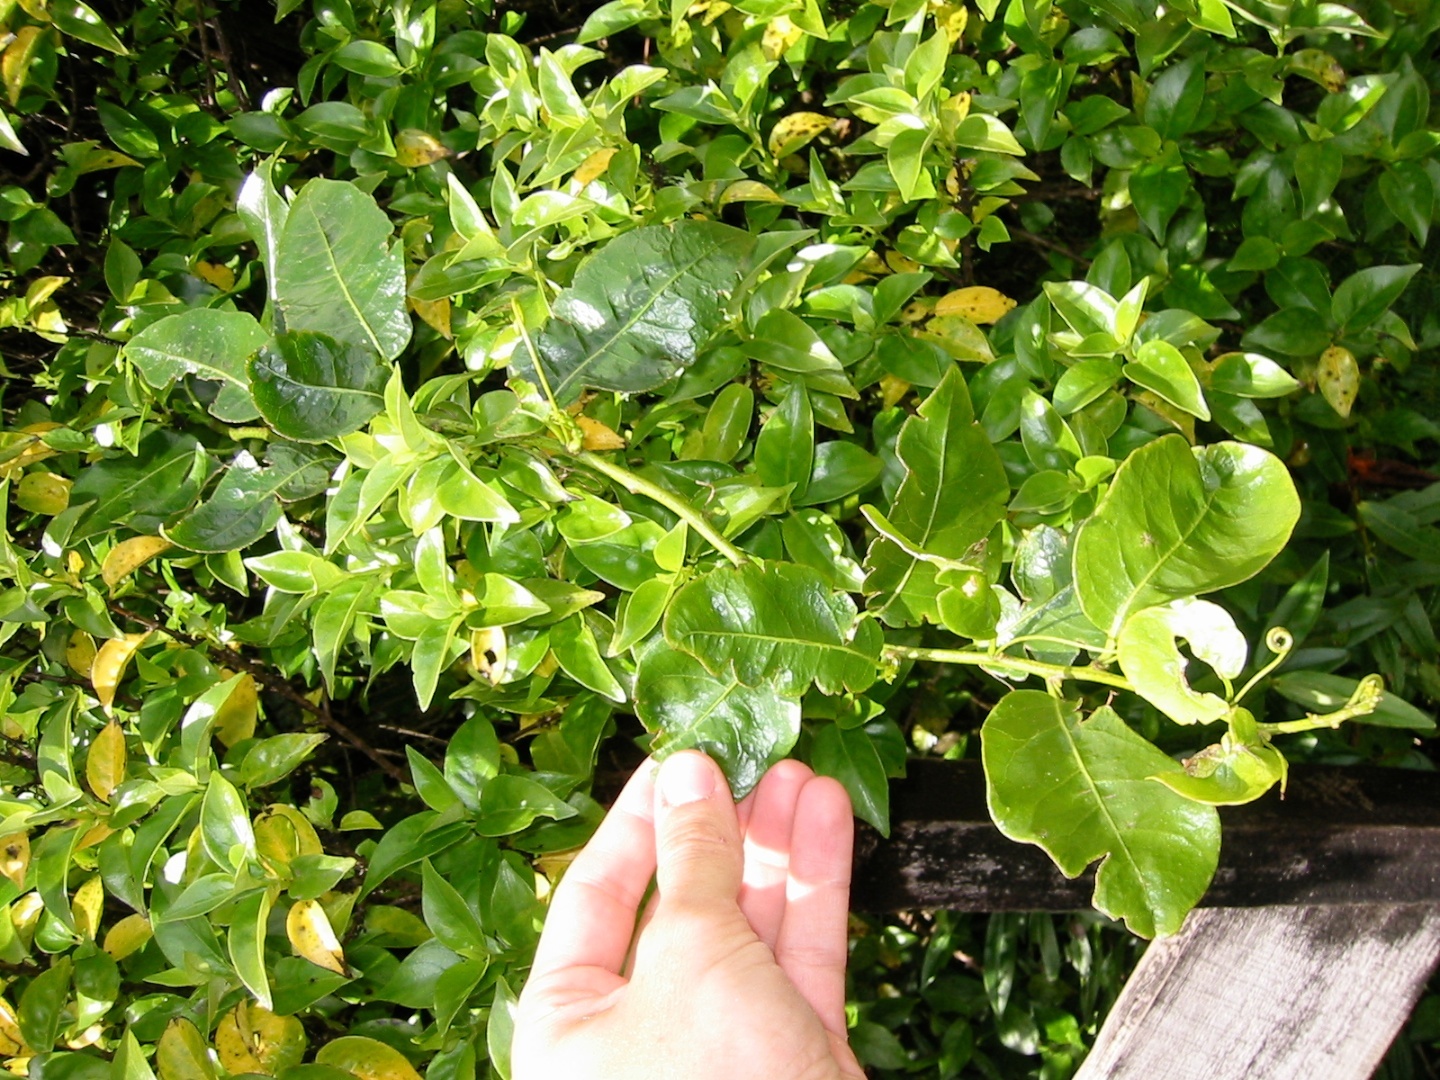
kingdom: Plantae
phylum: Tracheophyta
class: Magnoliopsida
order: Malpighiales
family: Passifloraceae
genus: Passiflora
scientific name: Passiflora tetrandra
